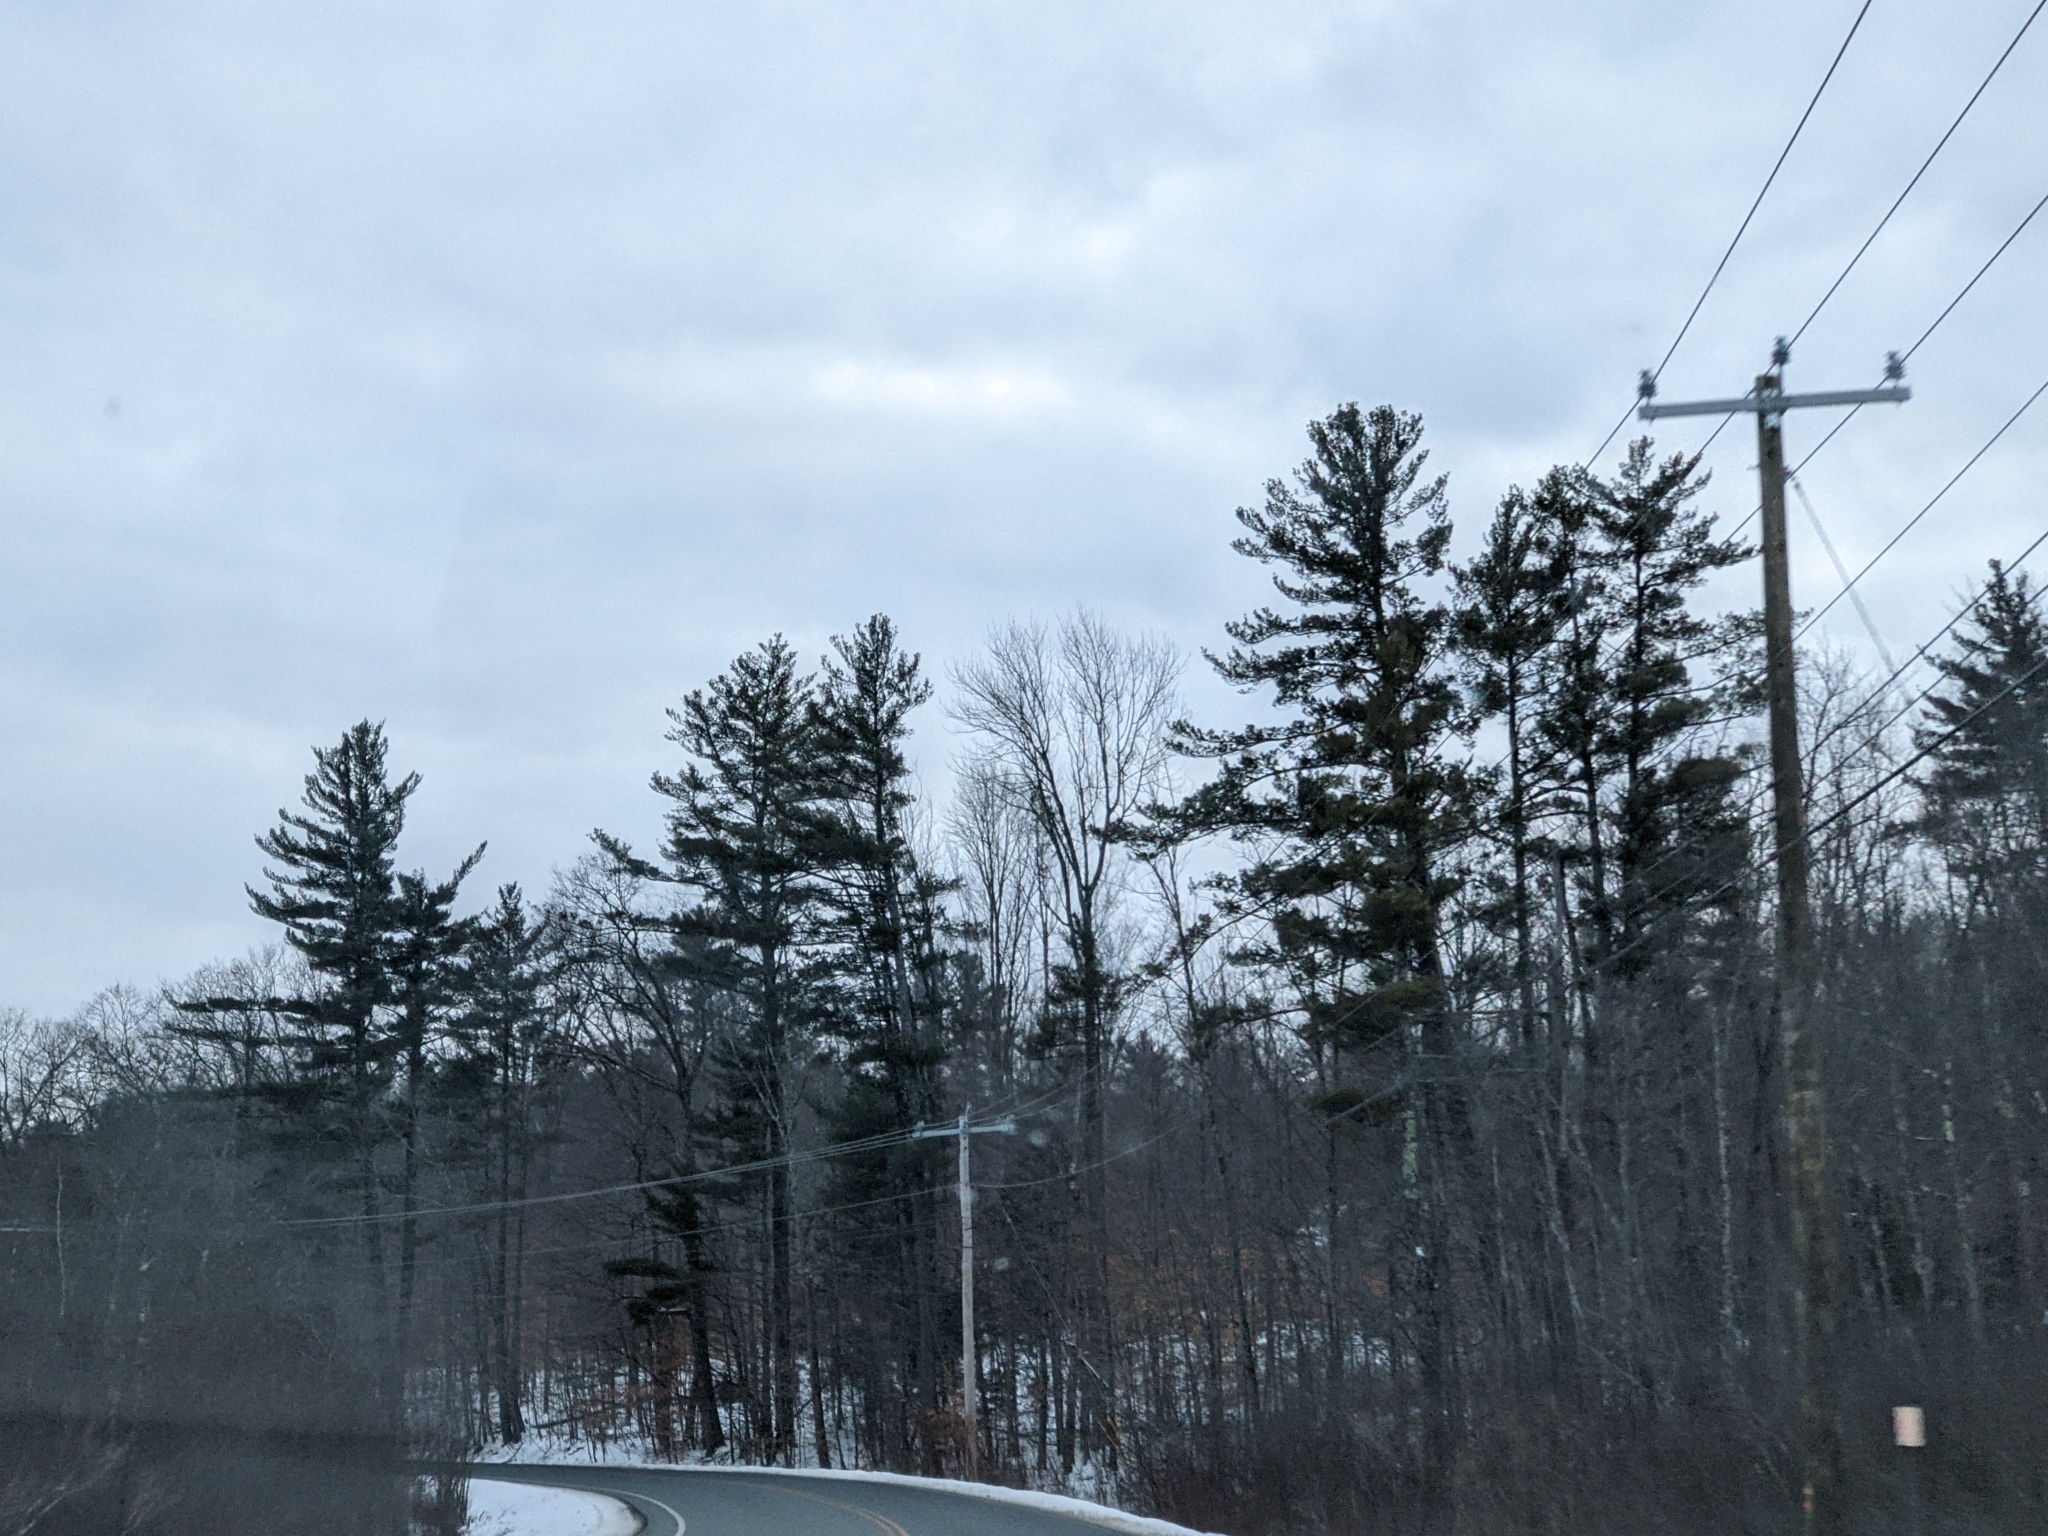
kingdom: Plantae
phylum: Tracheophyta
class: Pinopsida
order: Pinales
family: Pinaceae
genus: Pinus
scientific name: Pinus strobus
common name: Weymouth pine
